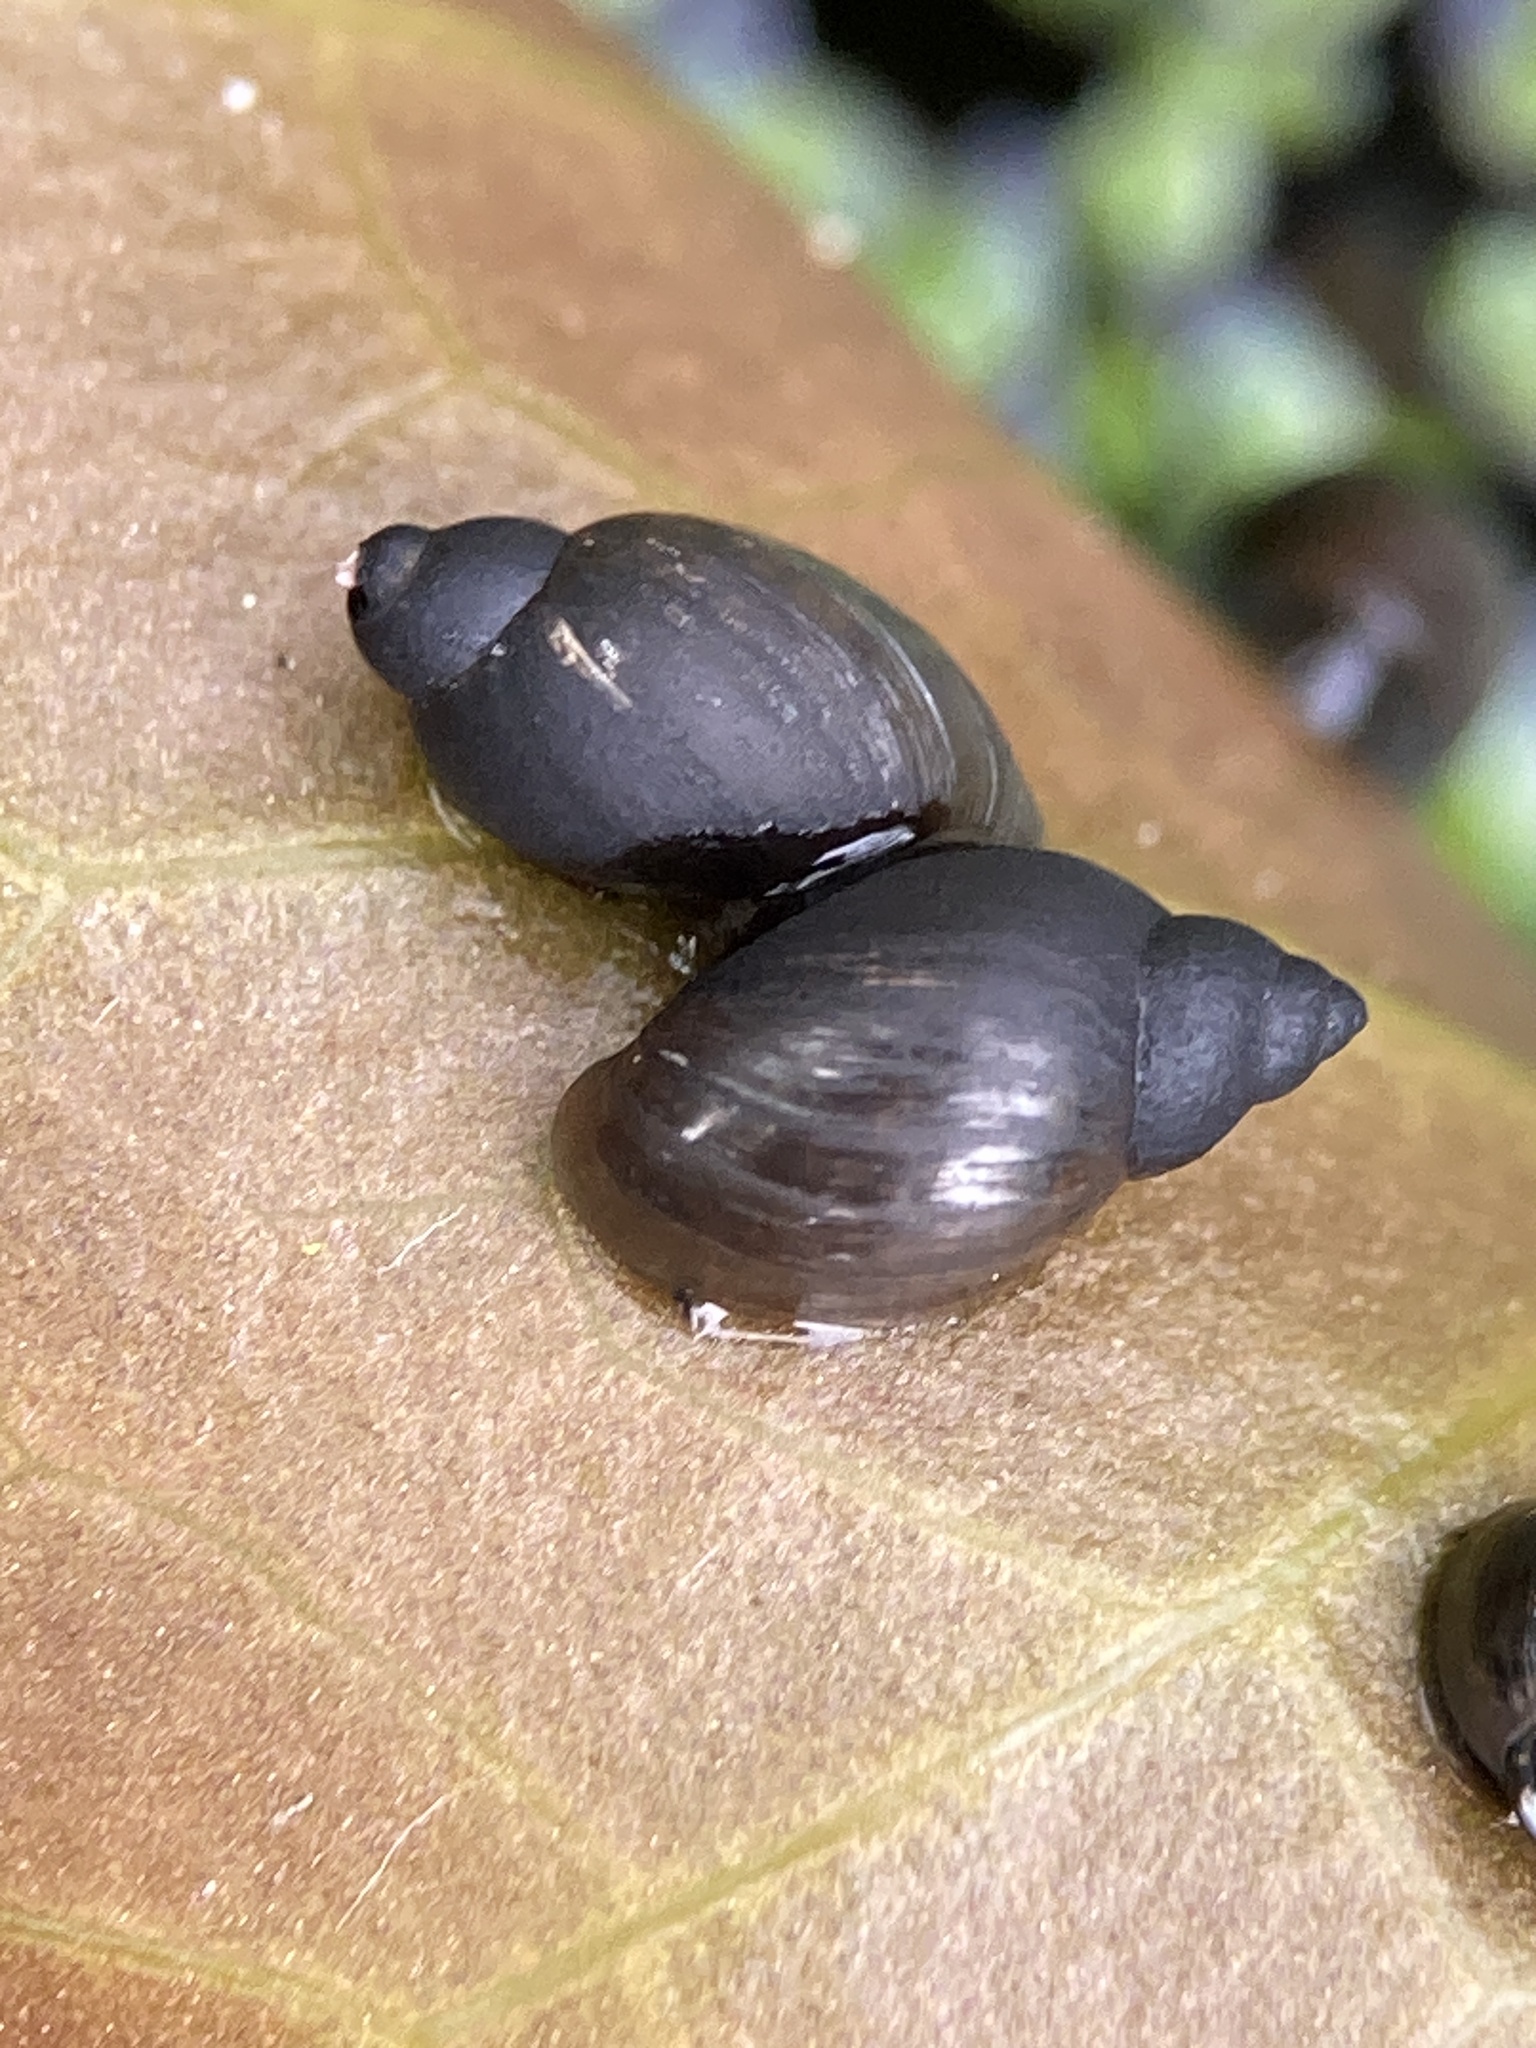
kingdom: Animalia
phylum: Mollusca
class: Gastropoda
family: Physidae
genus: Physella
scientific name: Physella acuta
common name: European physa
